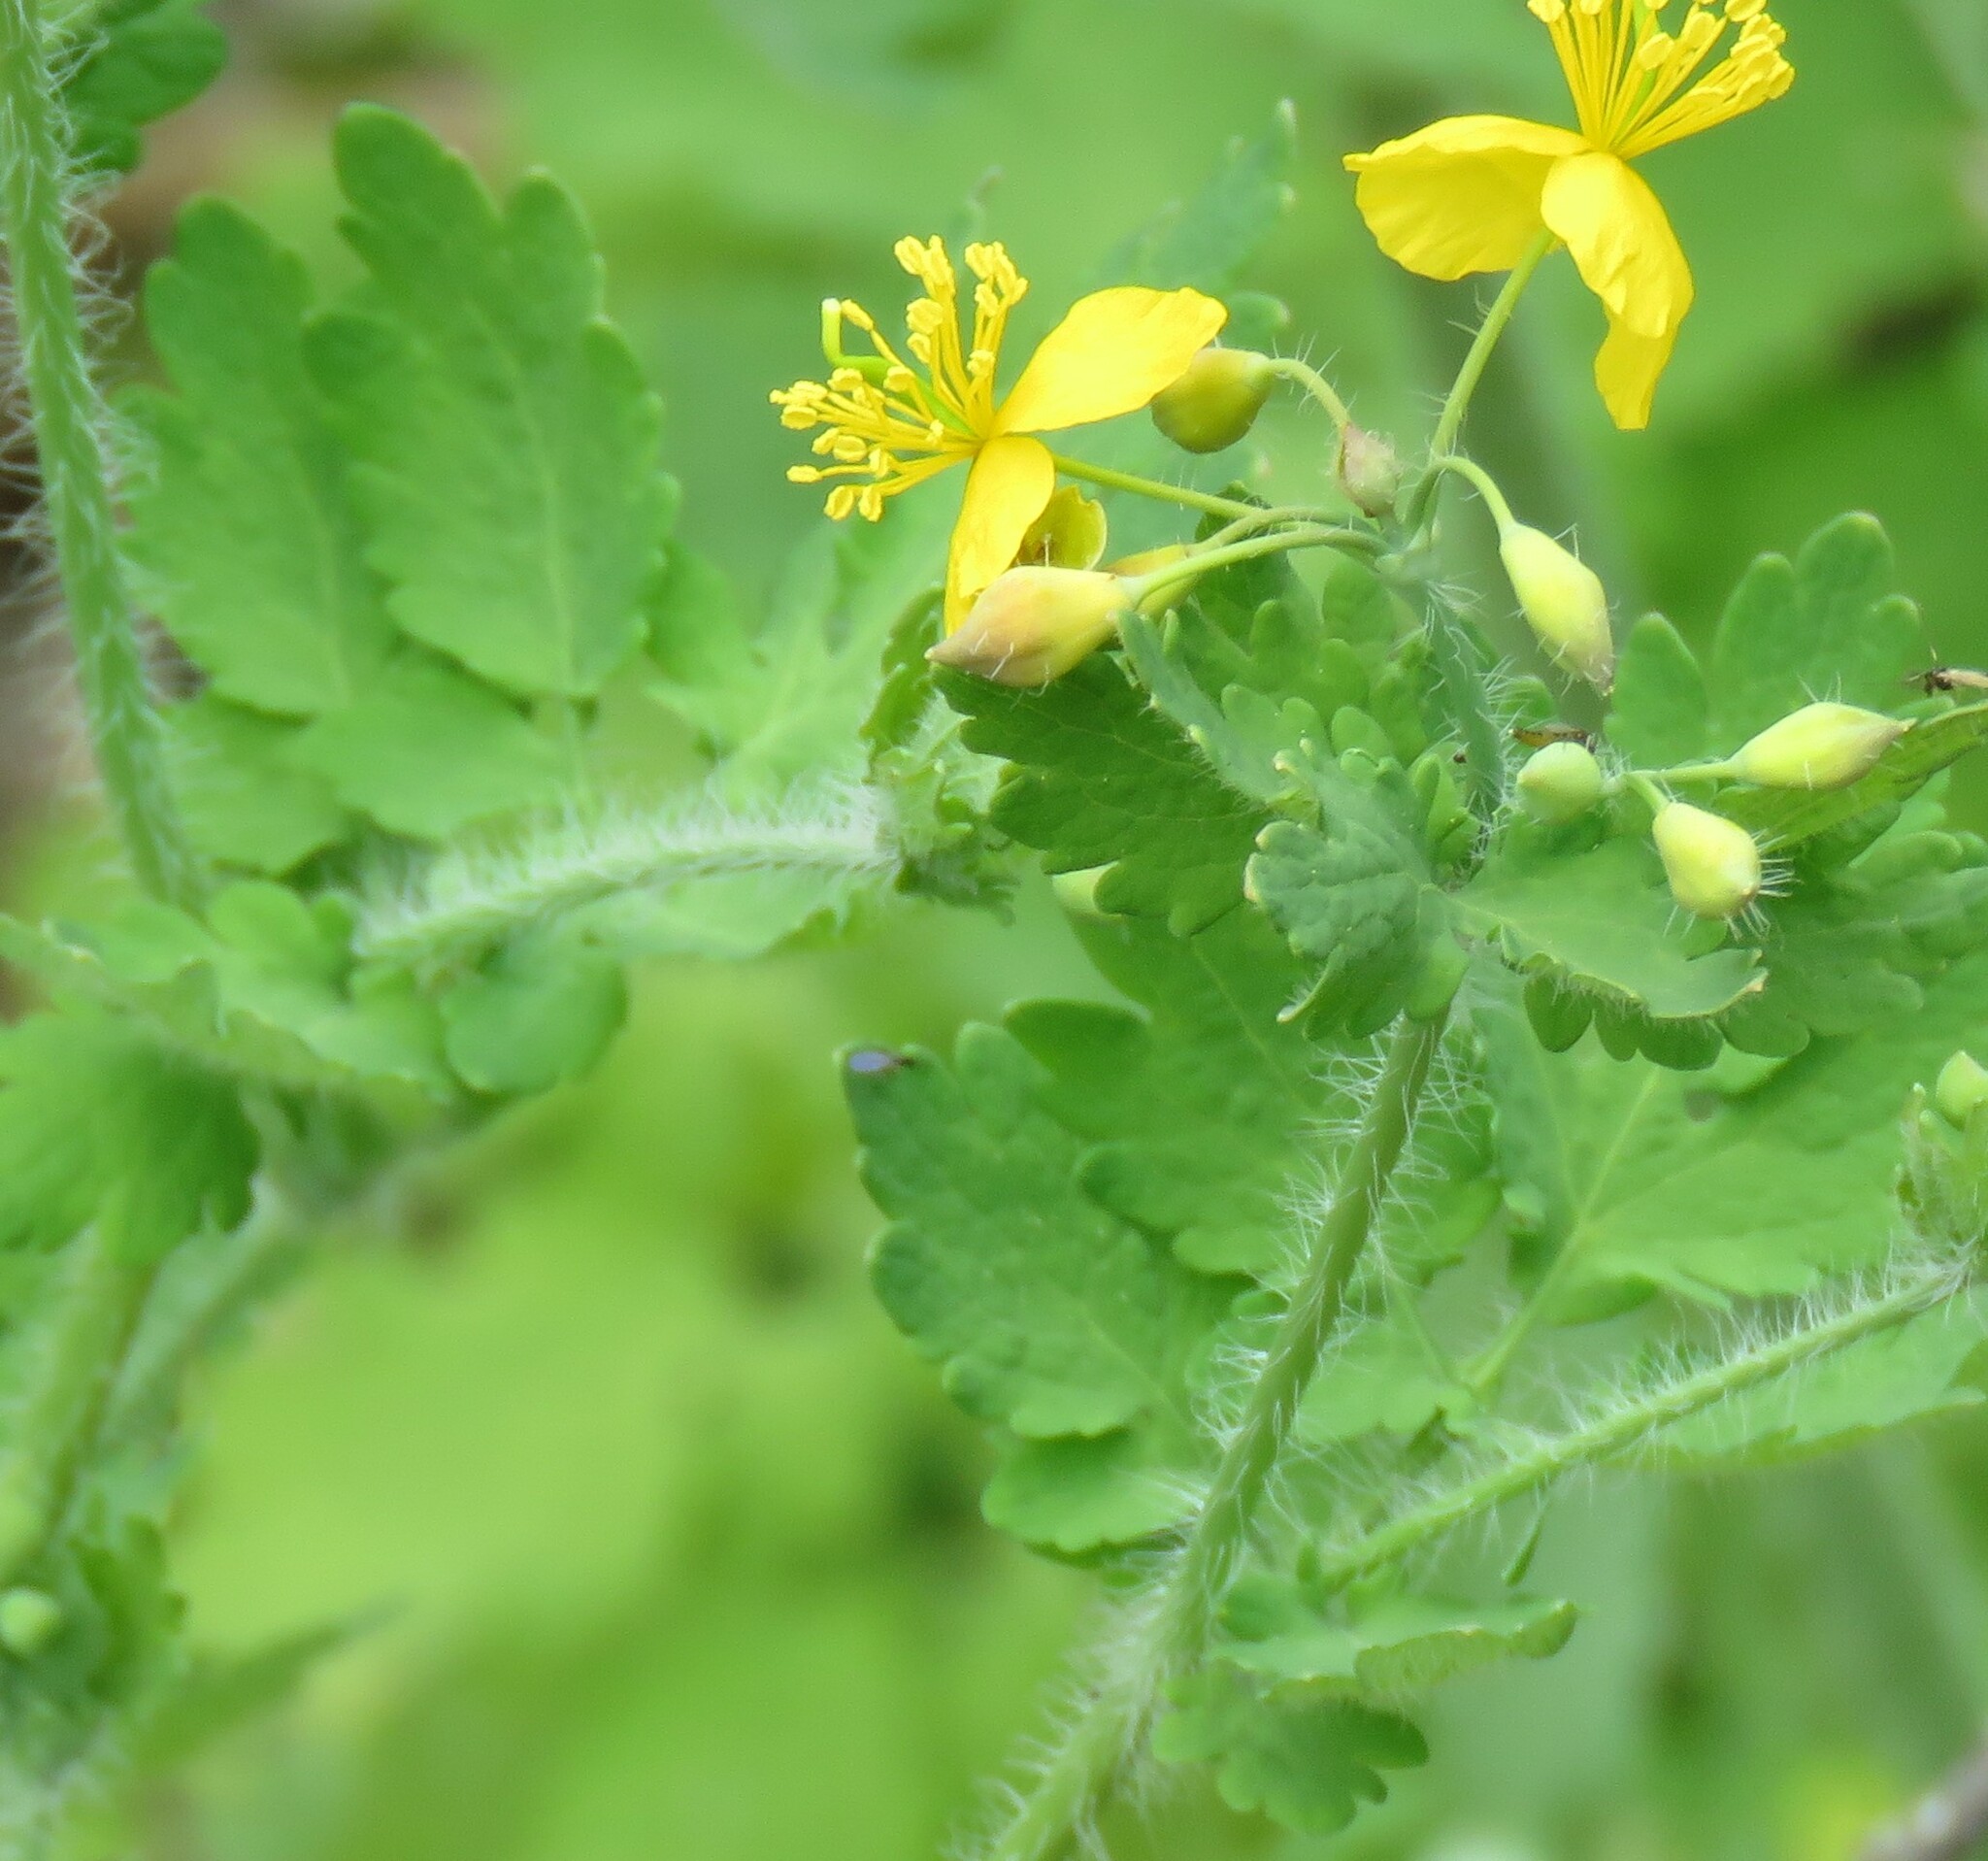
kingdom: Plantae
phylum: Tracheophyta
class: Magnoliopsida
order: Ranunculales
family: Papaveraceae
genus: Chelidonium
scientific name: Chelidonium majus
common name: Greater celandine
